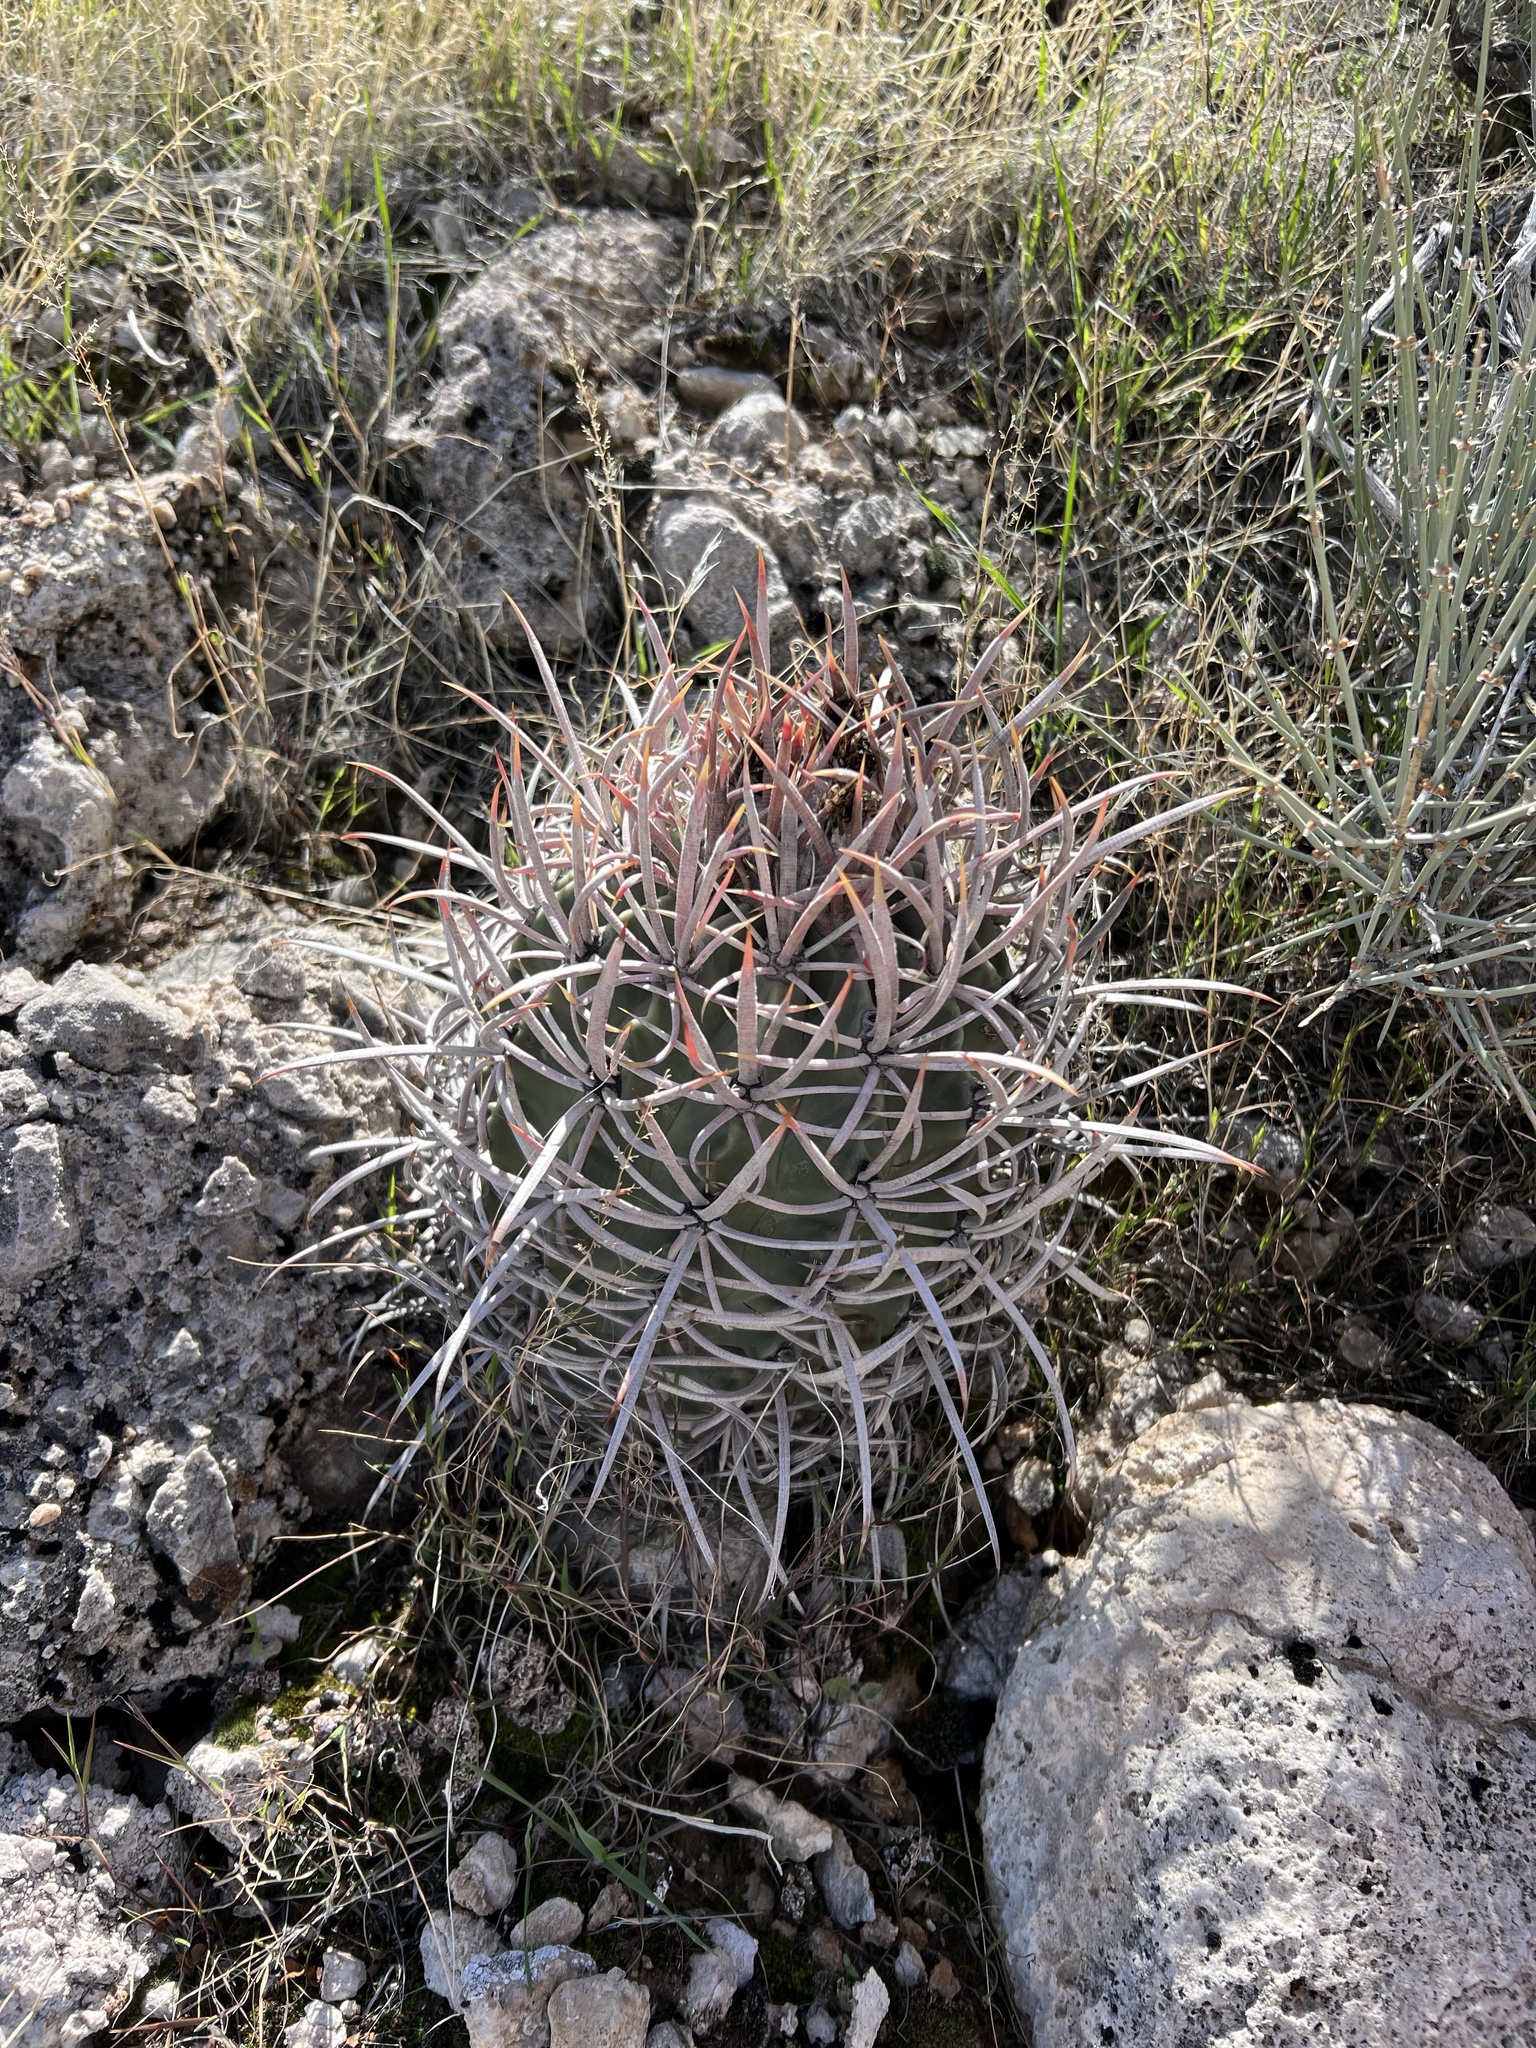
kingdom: Plantae
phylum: Tracheophyta
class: Magnoliopsida
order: Caryophyllales
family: Cactaceae
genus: Echinocactus
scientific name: Echinocactus polycephalus
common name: Cottontop cactus
